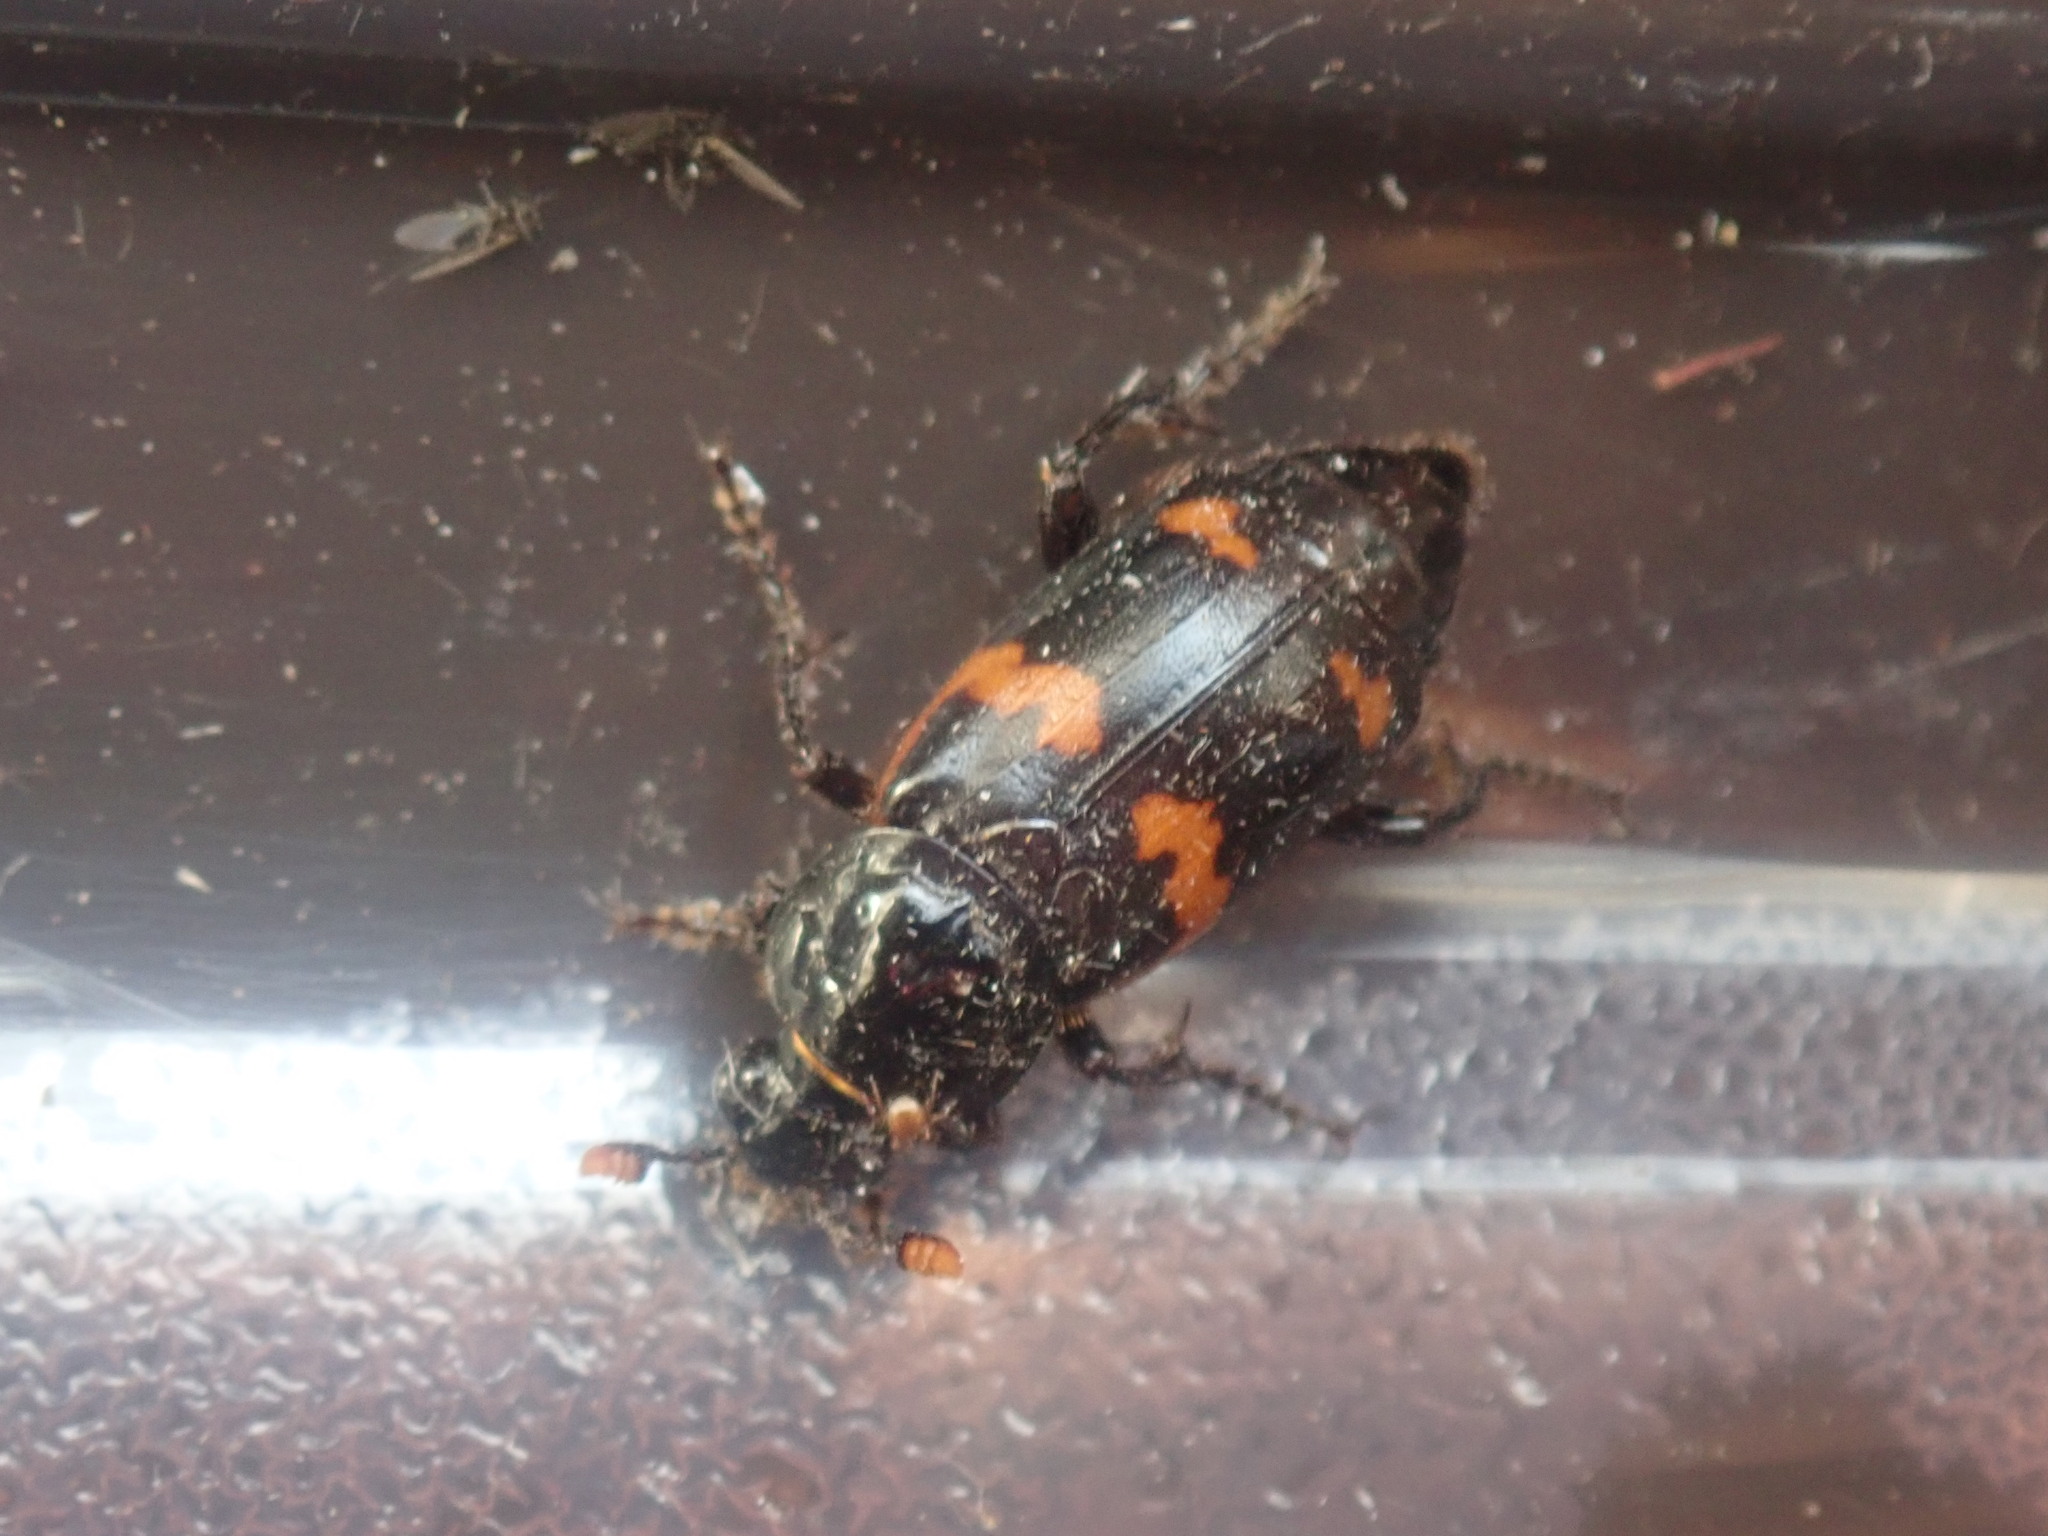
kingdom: Animalia
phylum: Arthropoda
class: Insecta
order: Coleoptera
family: Staphylinidae
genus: Nicrophorus
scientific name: Nicrophorus sayi
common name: Say's burying beetle
